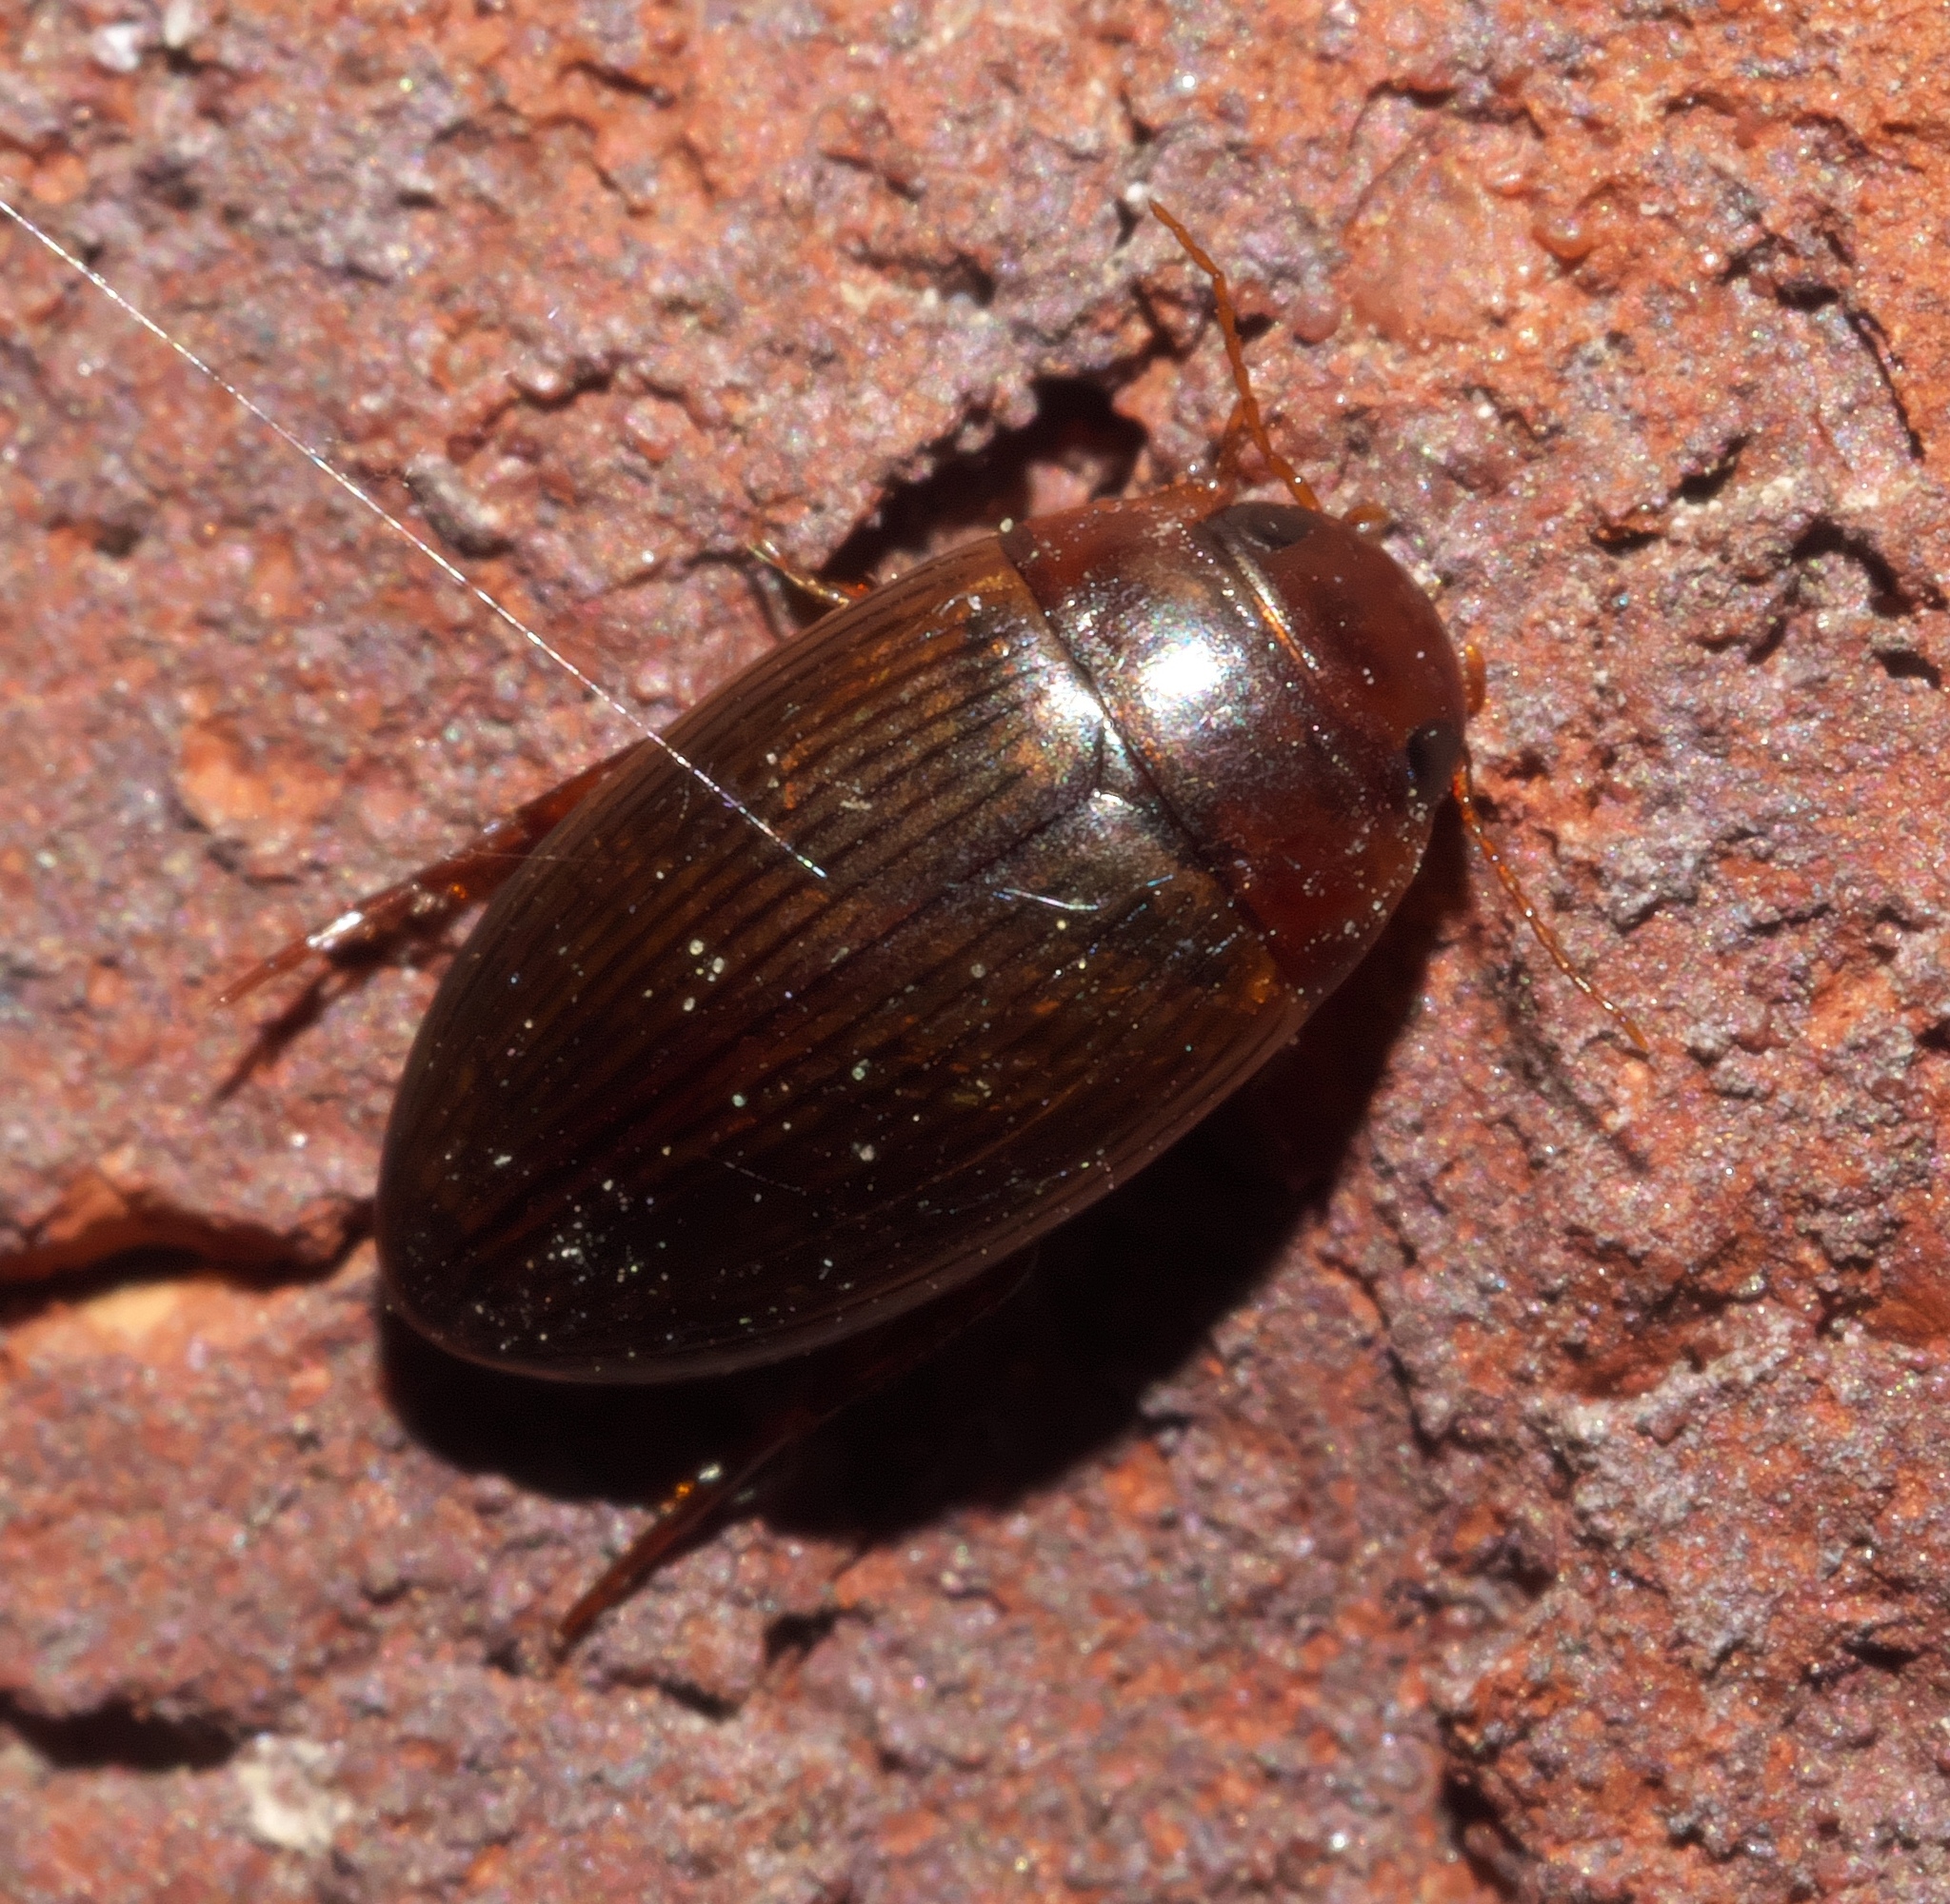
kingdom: Animalia
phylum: Arthropoda
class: Insecta
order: Coleoptera
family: Dytiscidae
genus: Copelatus
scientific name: Copelatus glyphicus
